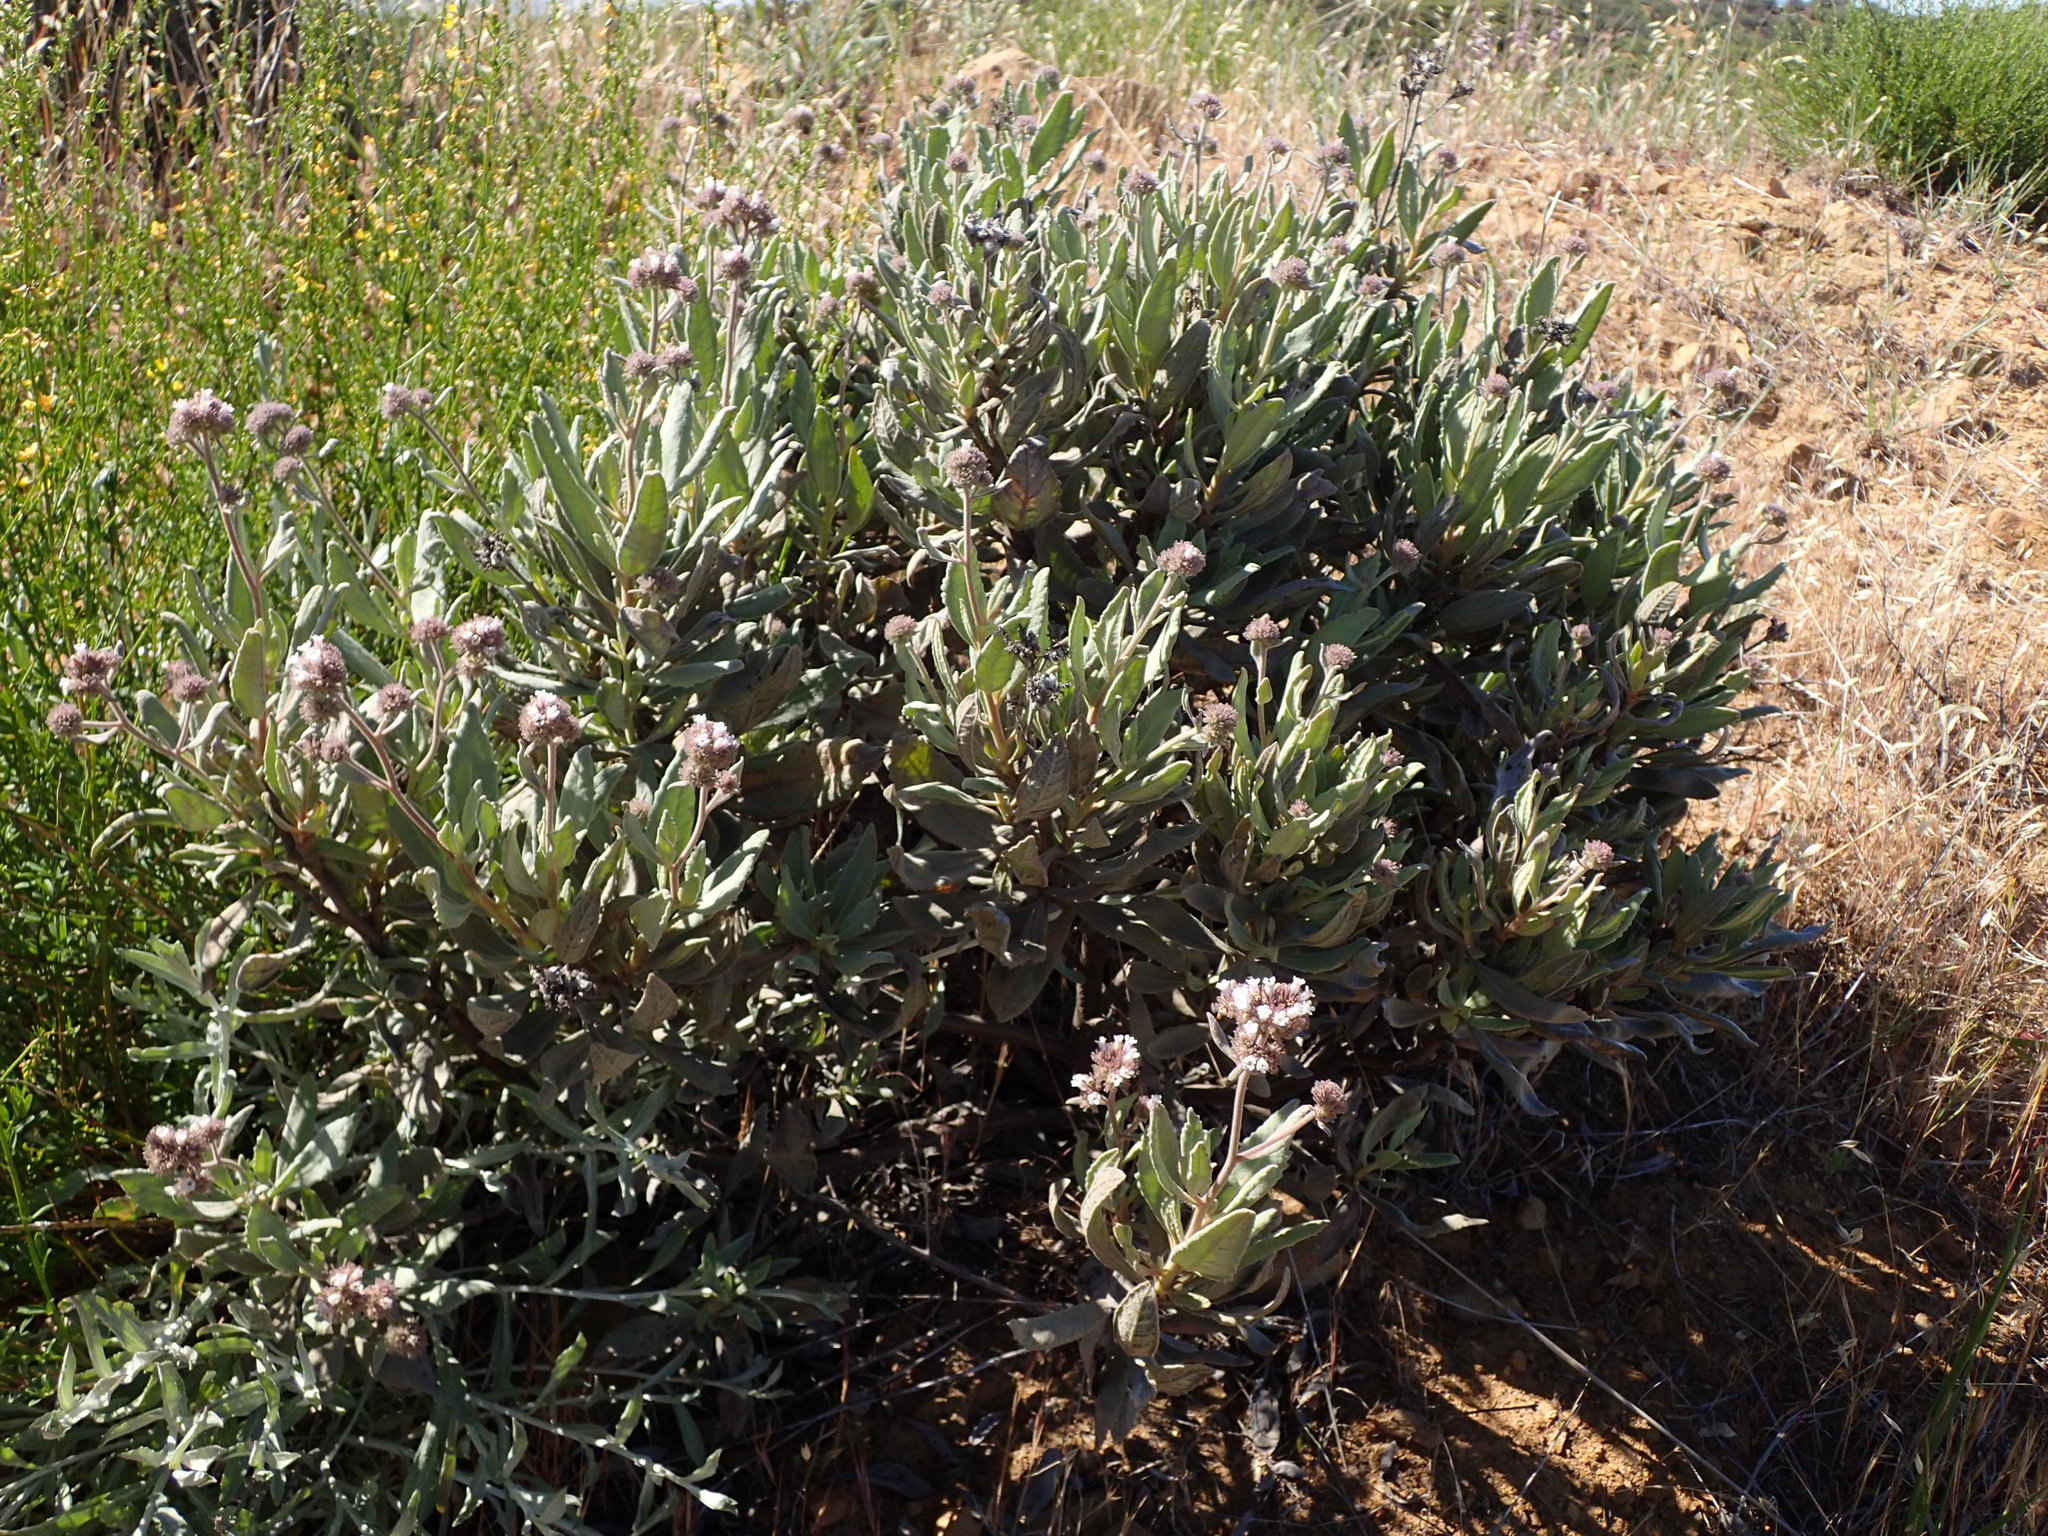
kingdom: Plantae
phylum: Tracheophyta
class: Magnoliopsida
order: Boraginales
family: Namaceae
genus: Eriodictyon
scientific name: Eriodictyon traskiae
